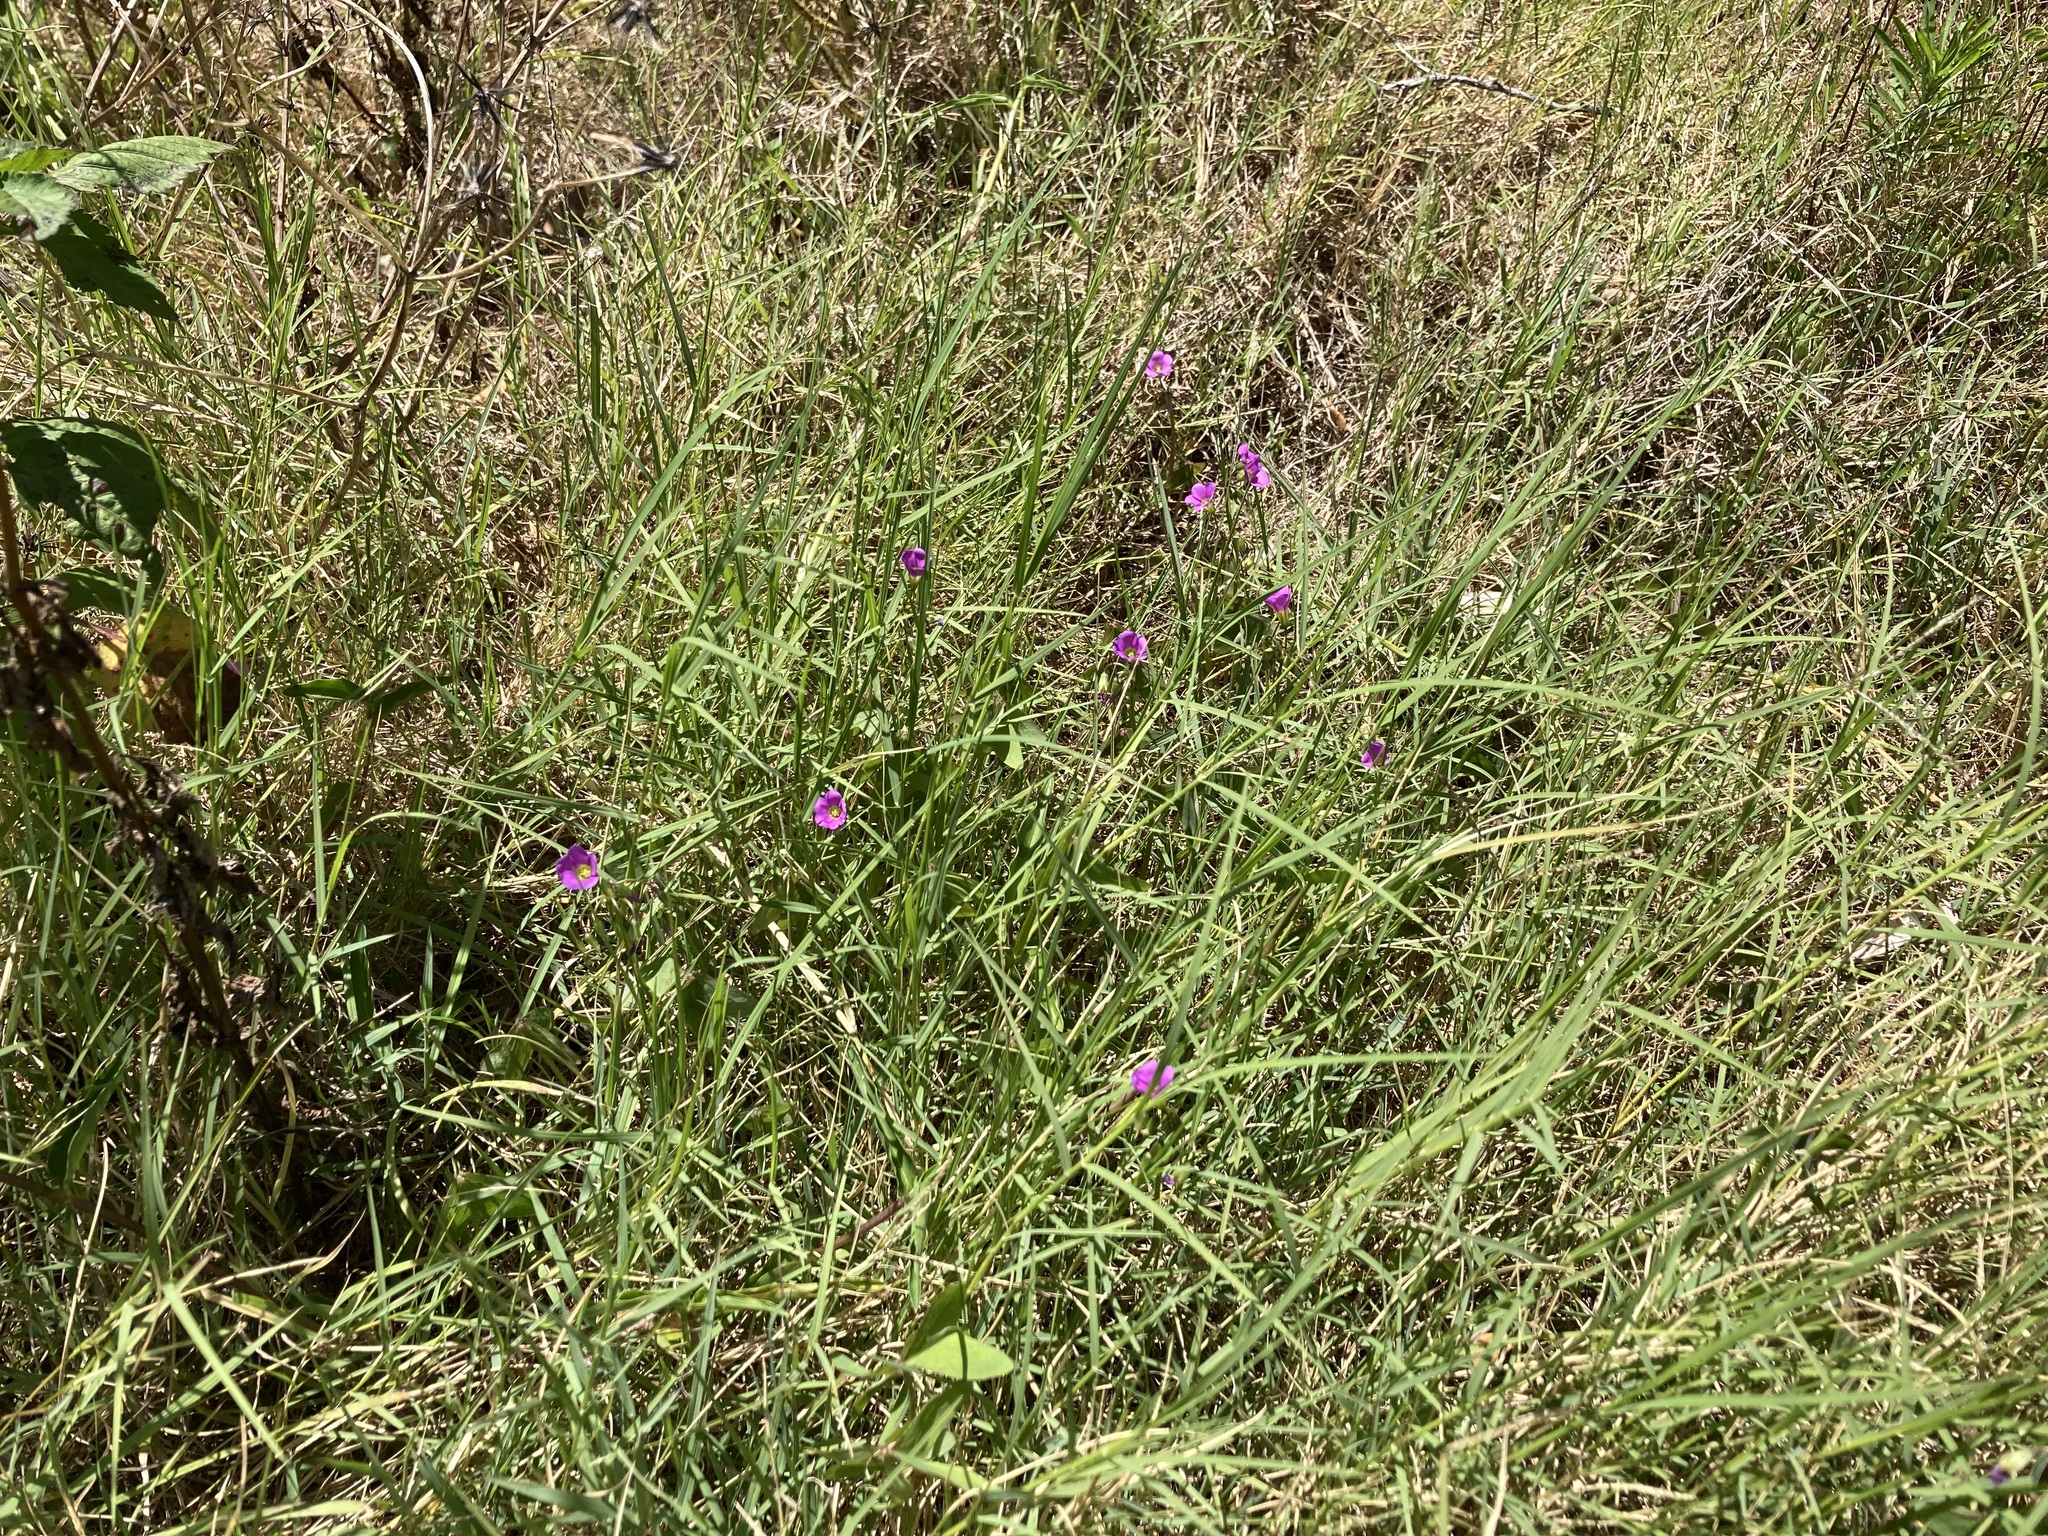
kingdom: Plantae
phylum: Tracheophyta
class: Magnoliopsida
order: Oxalidales
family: Oxalidaceae
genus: Oxalis
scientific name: Oxalis latifolia
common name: Garden pink-sorrel
